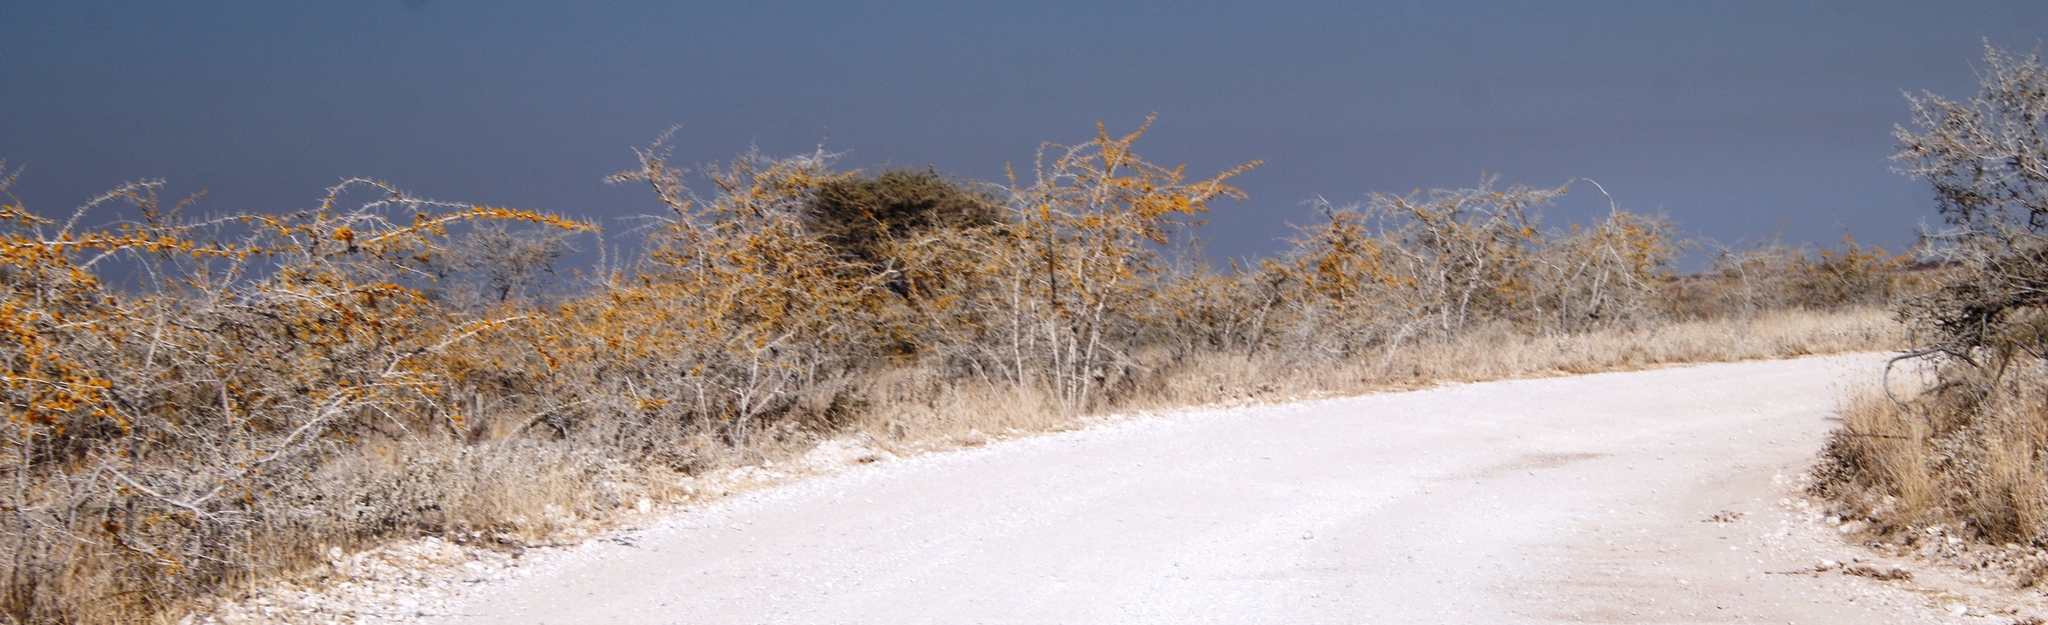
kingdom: Plantae
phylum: Tracheophyta
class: Magnoliopsida
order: Fabales
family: Fabaceae
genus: Vachellia
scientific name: Vachellia nebrownii
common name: Water acacia
